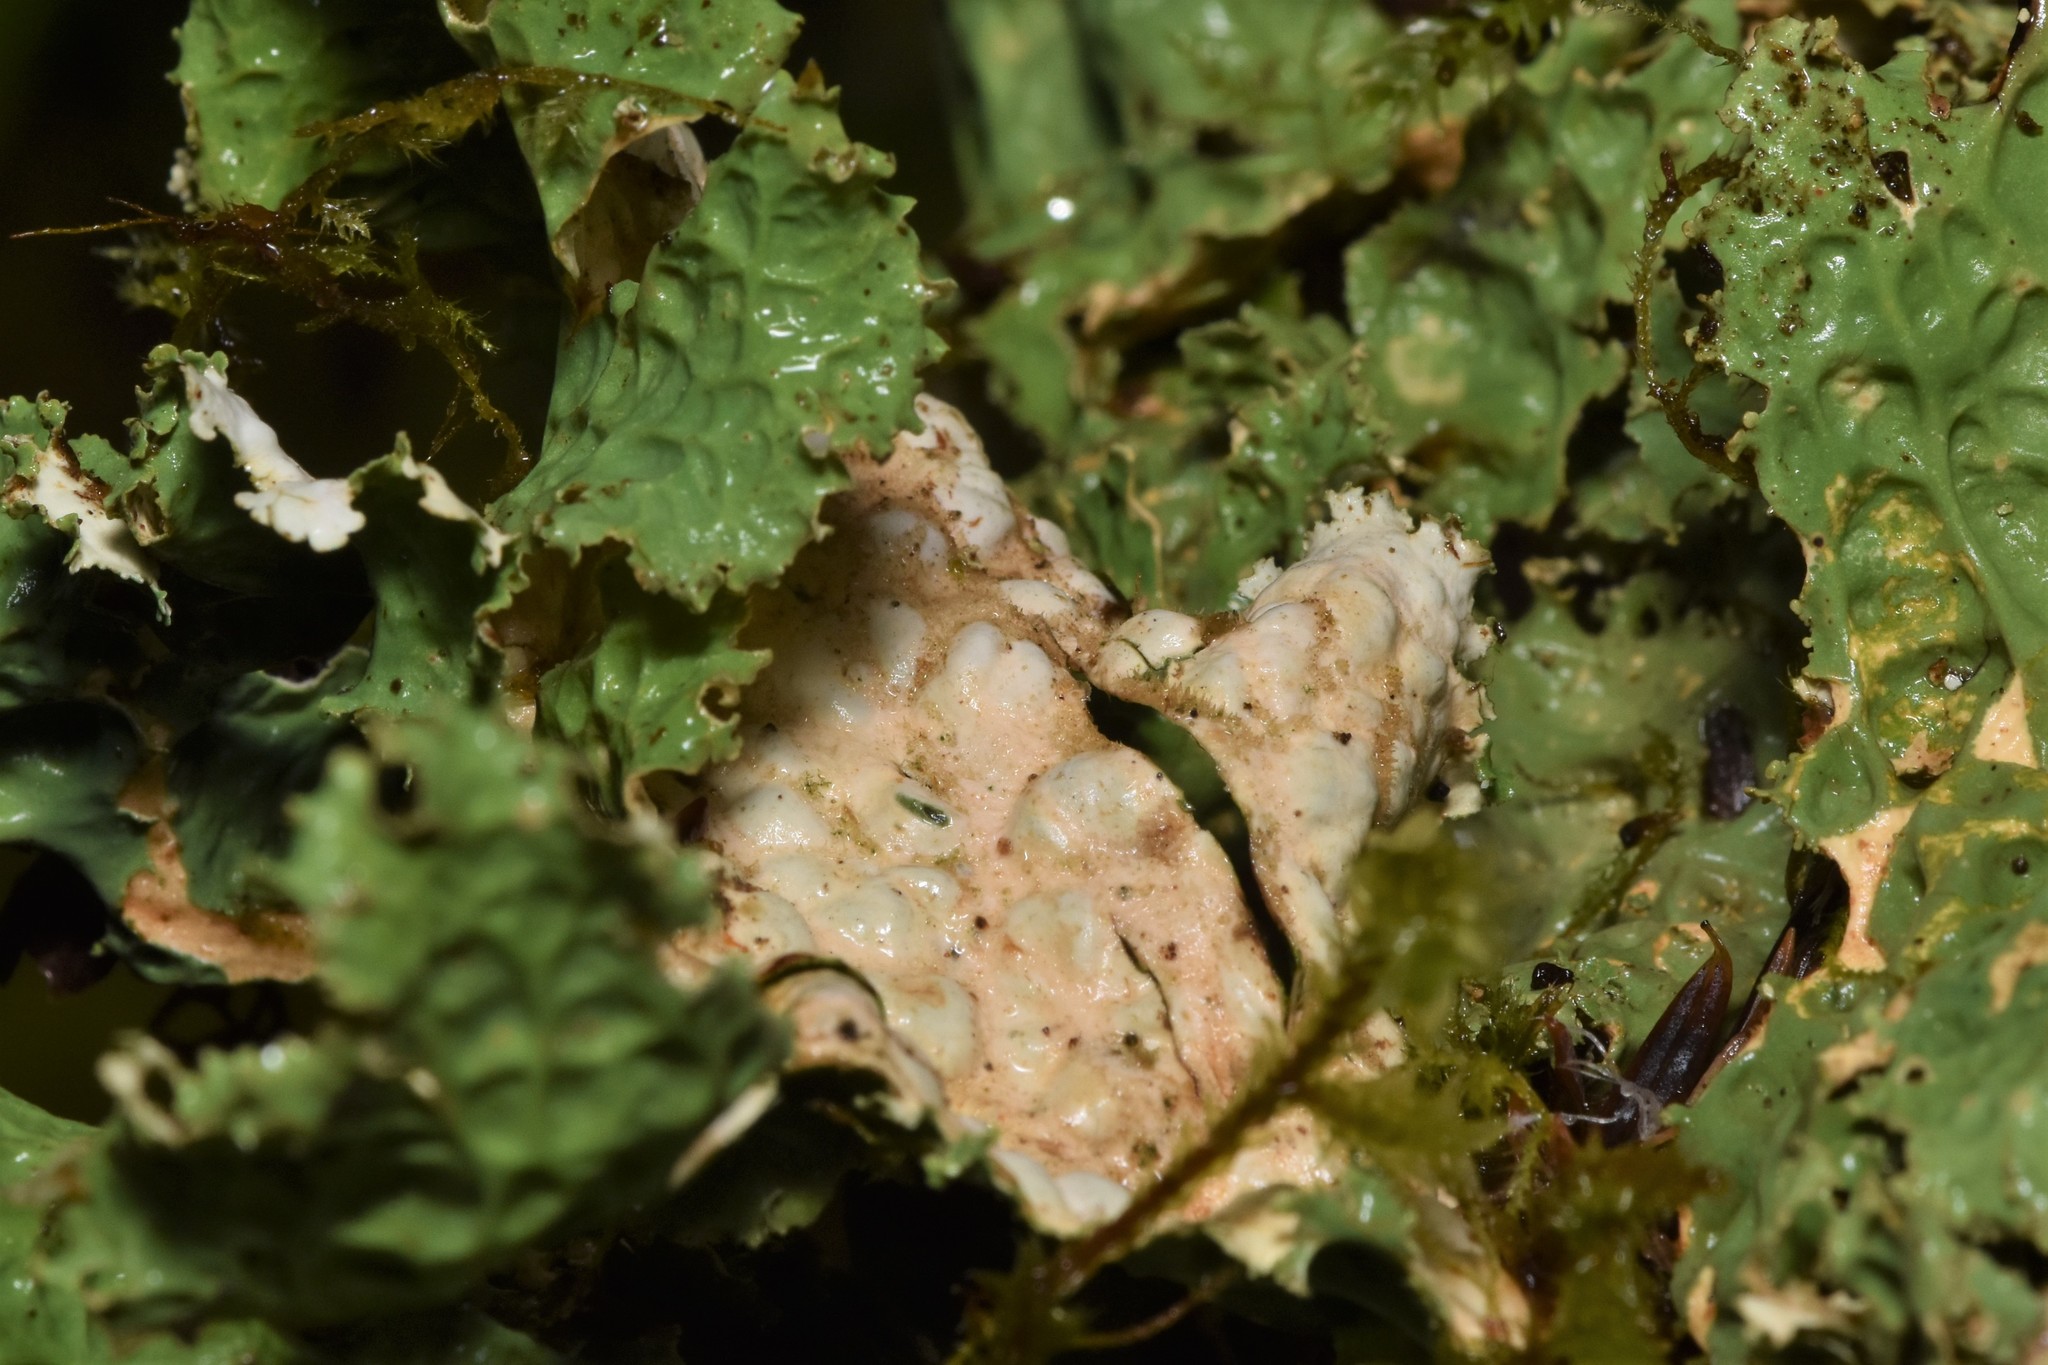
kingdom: Fungi
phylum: Ascomycota
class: Lecanoromycetes
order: Peltigerales
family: Lobariaceae
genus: Lobaria
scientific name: Lobaria oregana
